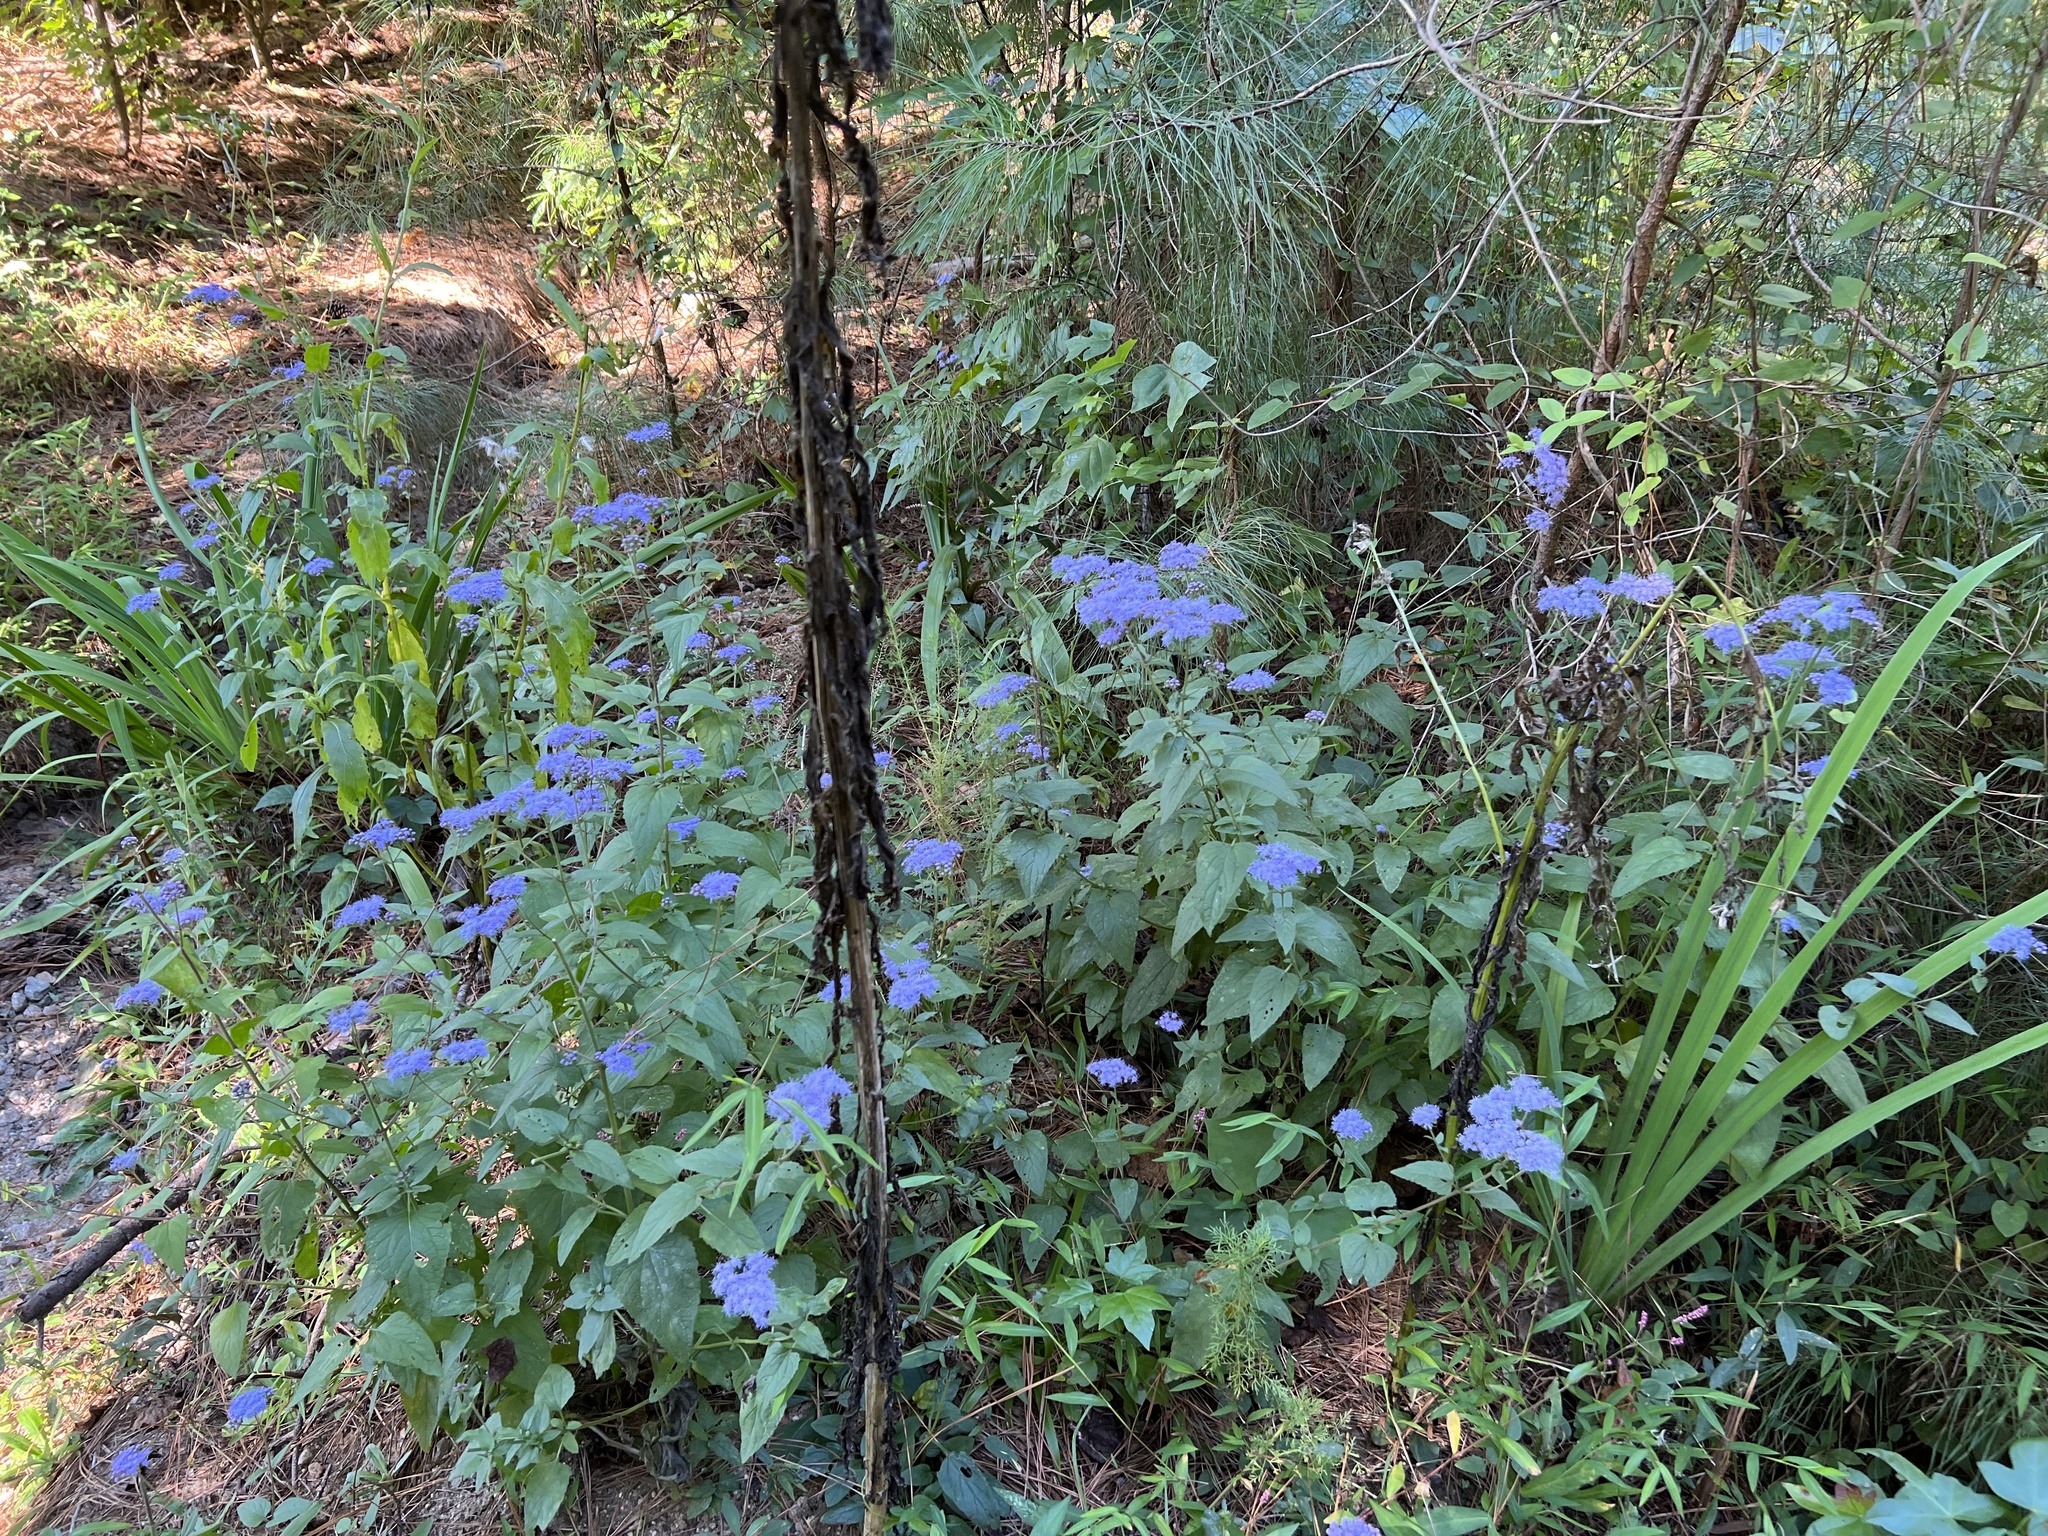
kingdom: Plantae
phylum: Tracheophyta
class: Magnoliopsida
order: Asterales
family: Asteraceae
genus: Conoclinium
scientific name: Conoclinium coelestinum
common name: Blue mistflower
